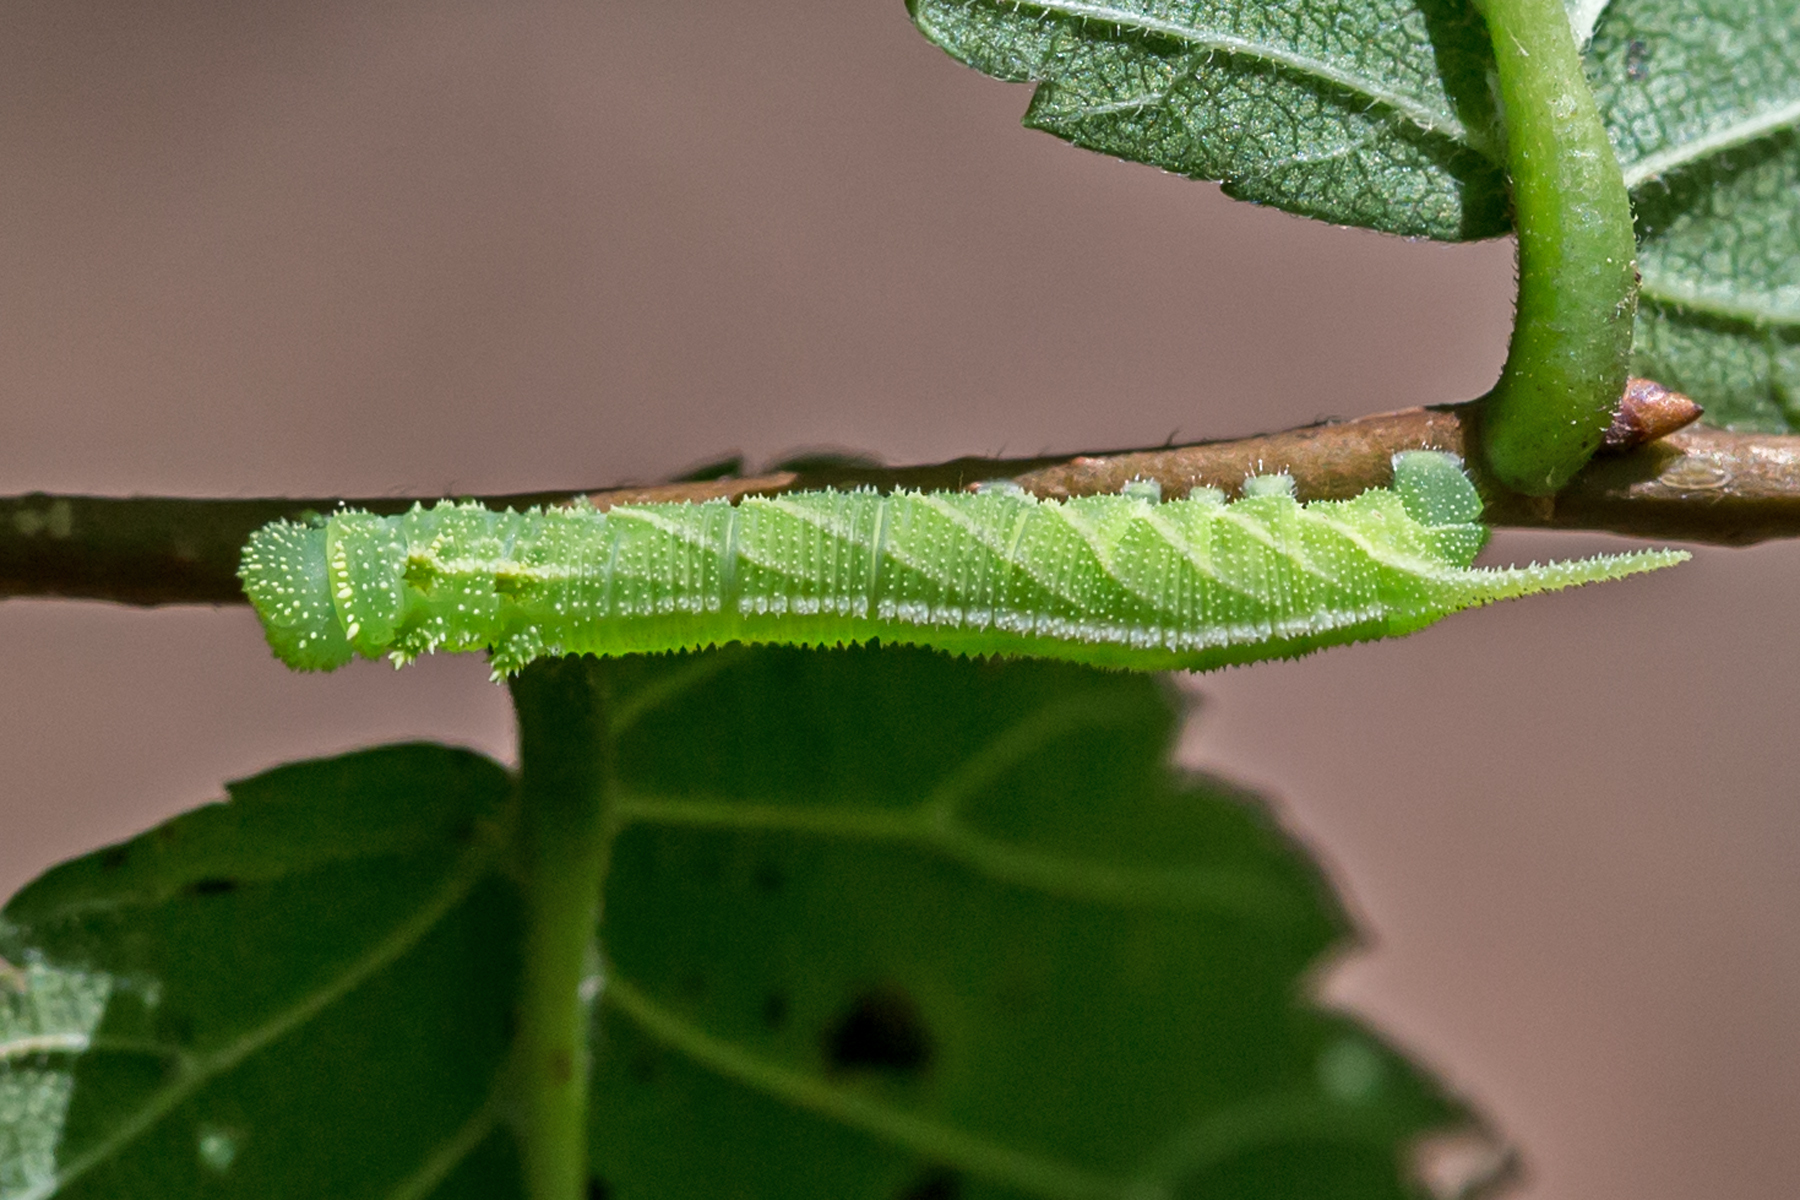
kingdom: Animalia
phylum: Arthropoda
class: Insecta
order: Lepidoptera
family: Sphingidae
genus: Ceratomia
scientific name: Ceratomia amyntor
